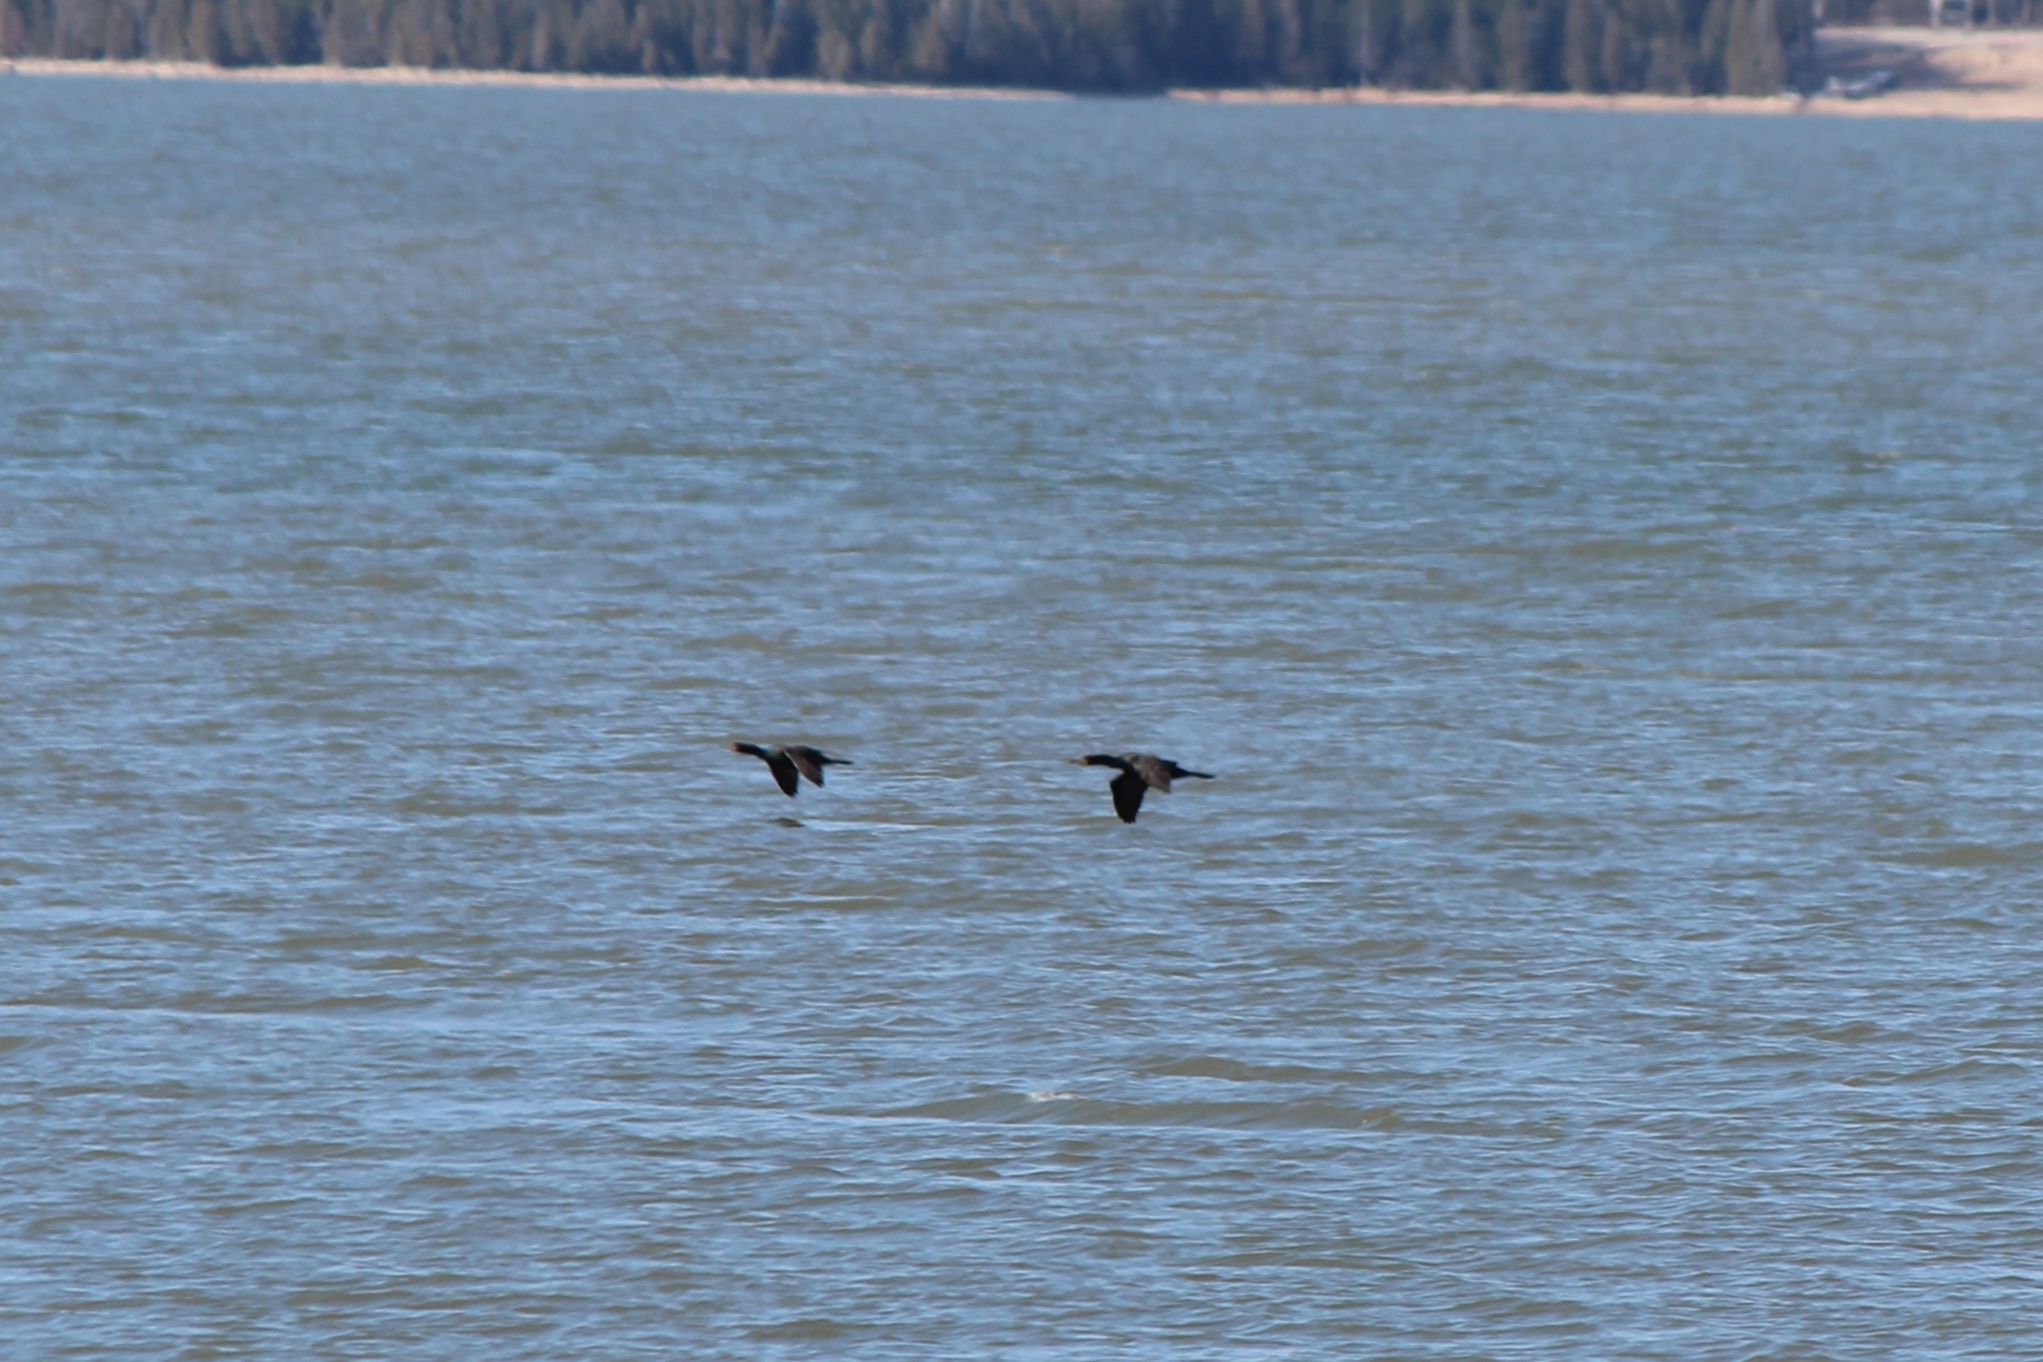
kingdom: Animalia
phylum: Chordata
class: Aves
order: Suliformes
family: Phalacrocoracidae
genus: Phalacrocorax
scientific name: Phalacrocorax auritus
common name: Double-crested cormorant
